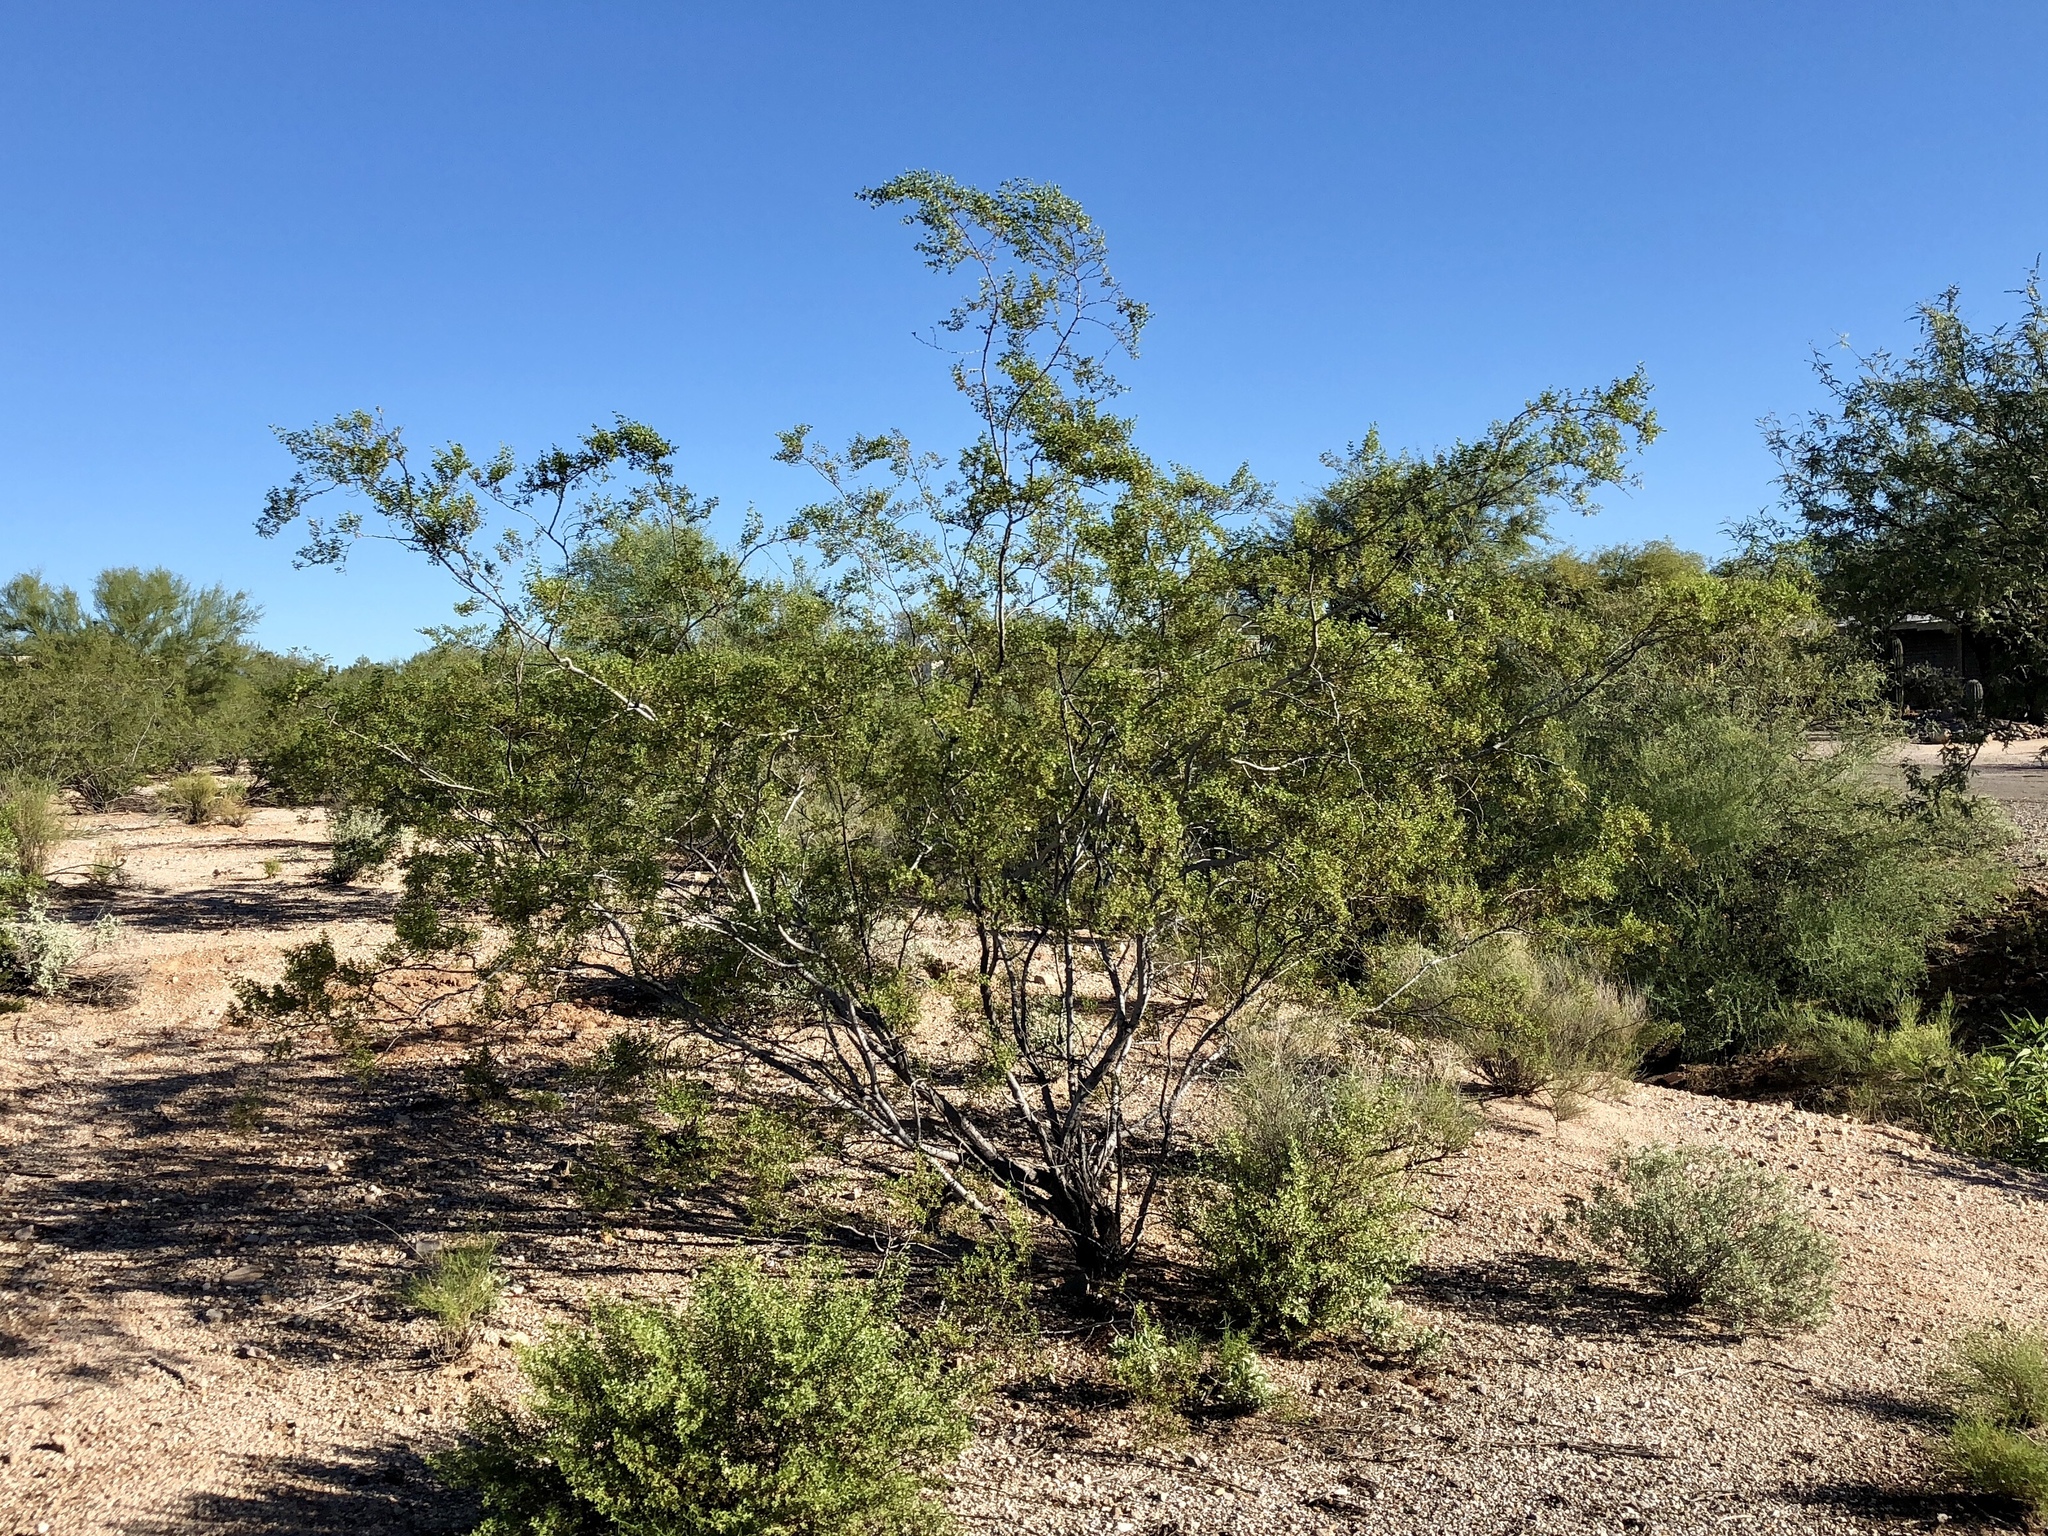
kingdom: Plantae
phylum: Tracheophyta
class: Magnoliopsida
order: Zygophyllales
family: Zygophyllaceae
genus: Larrea
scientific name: Larrea tridentata
